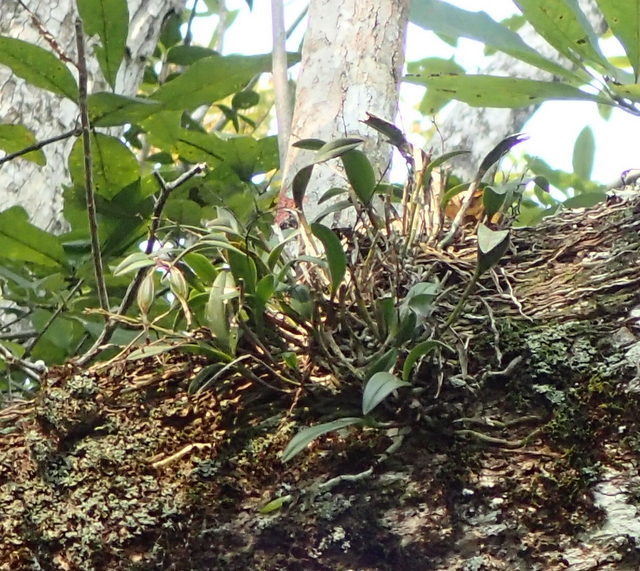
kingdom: Plantae
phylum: Tracheophyta
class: Liliopsida
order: Asparagales
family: Orchidaceae
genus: Epidendrum
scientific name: Epidendrum conopseum
